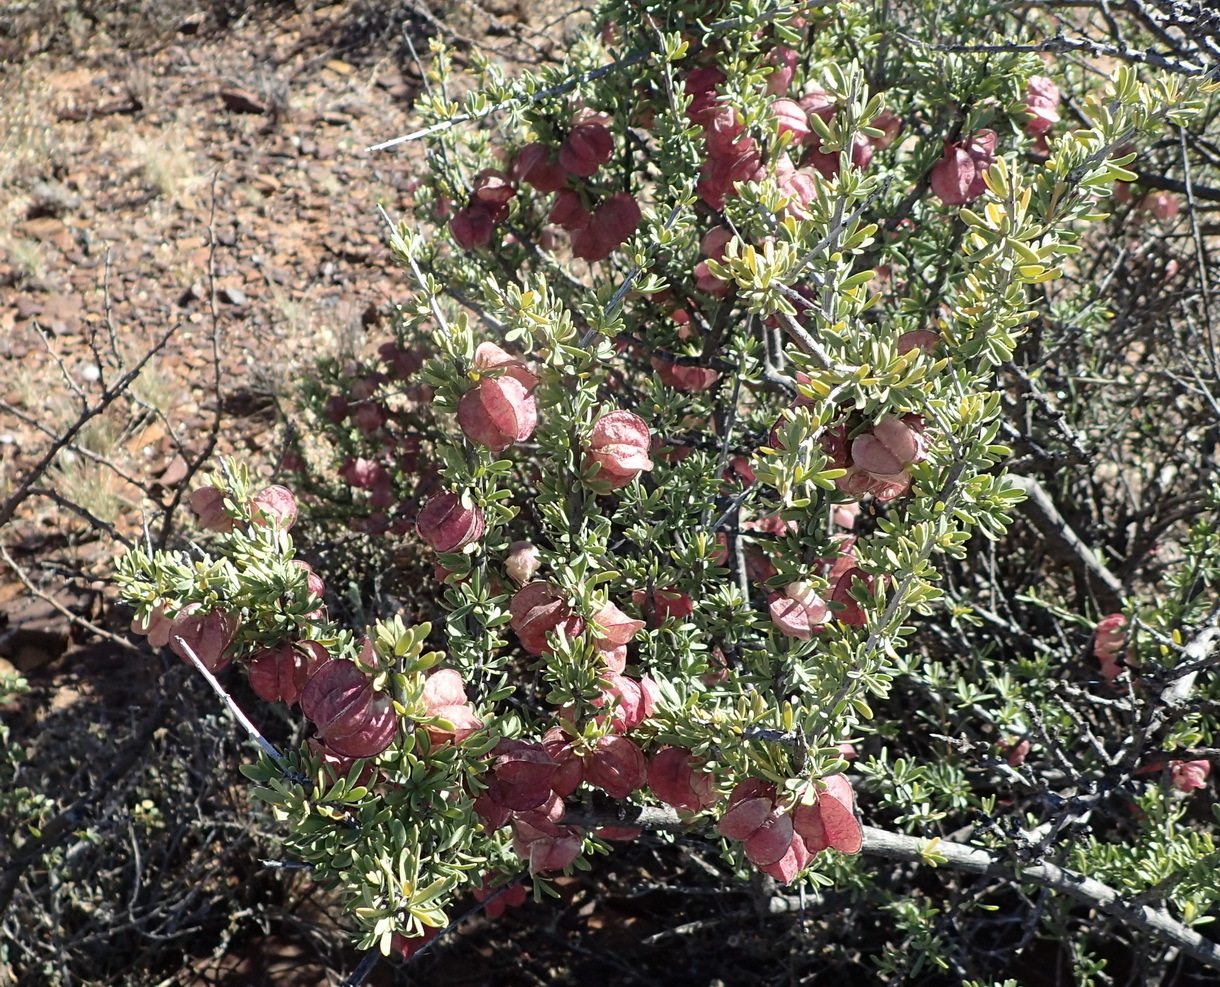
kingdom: Plantae
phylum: Tracheophyta
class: Magnoliopsida
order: Sapindales
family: Meliaceae
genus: Nymania
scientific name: Nymania capensis
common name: Chinese lantern tree
